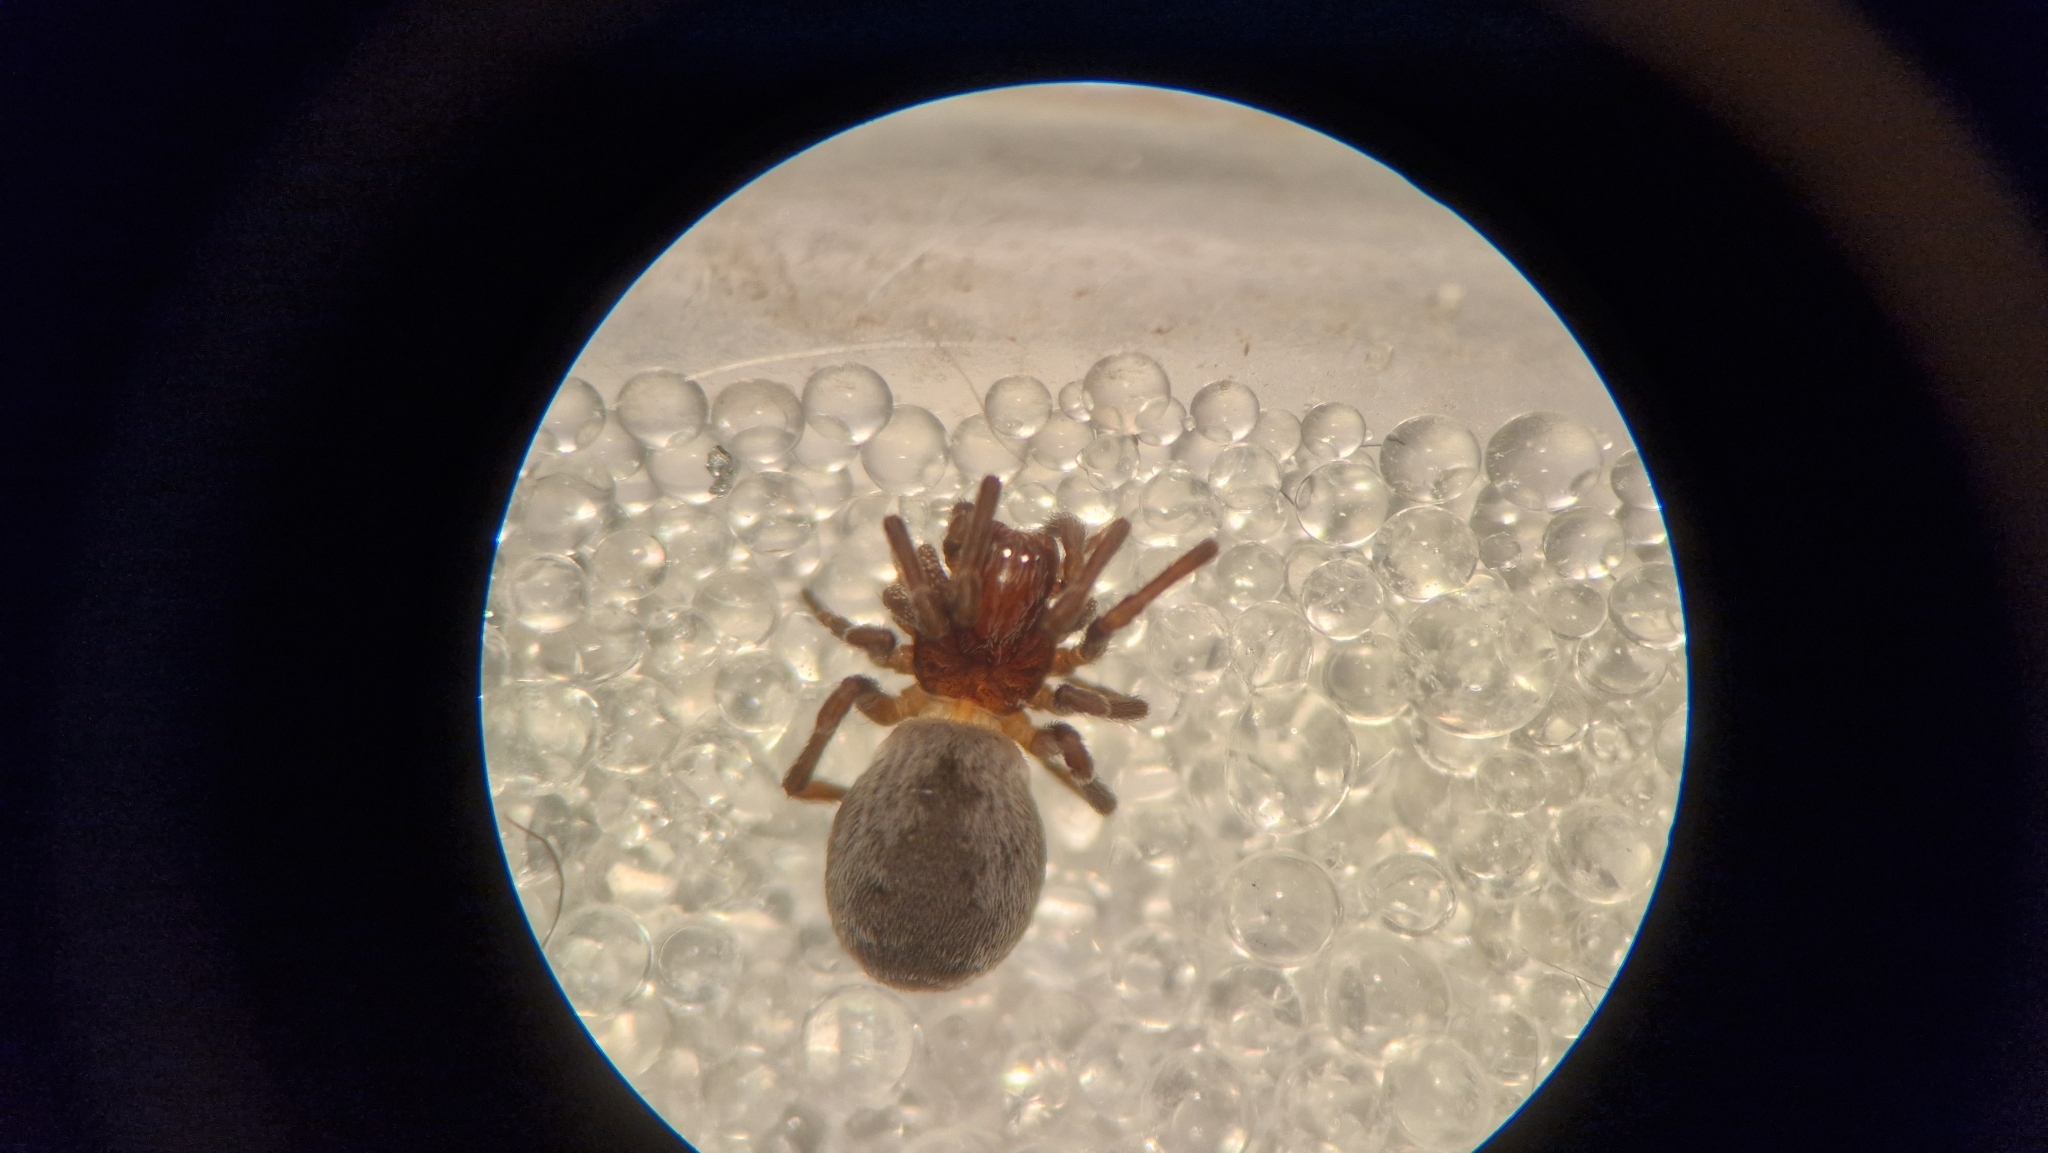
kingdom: Animalia
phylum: Arthropoda
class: Arachnida
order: Araneae
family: Dictynidae
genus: Brigittea
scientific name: Brigittea latens
